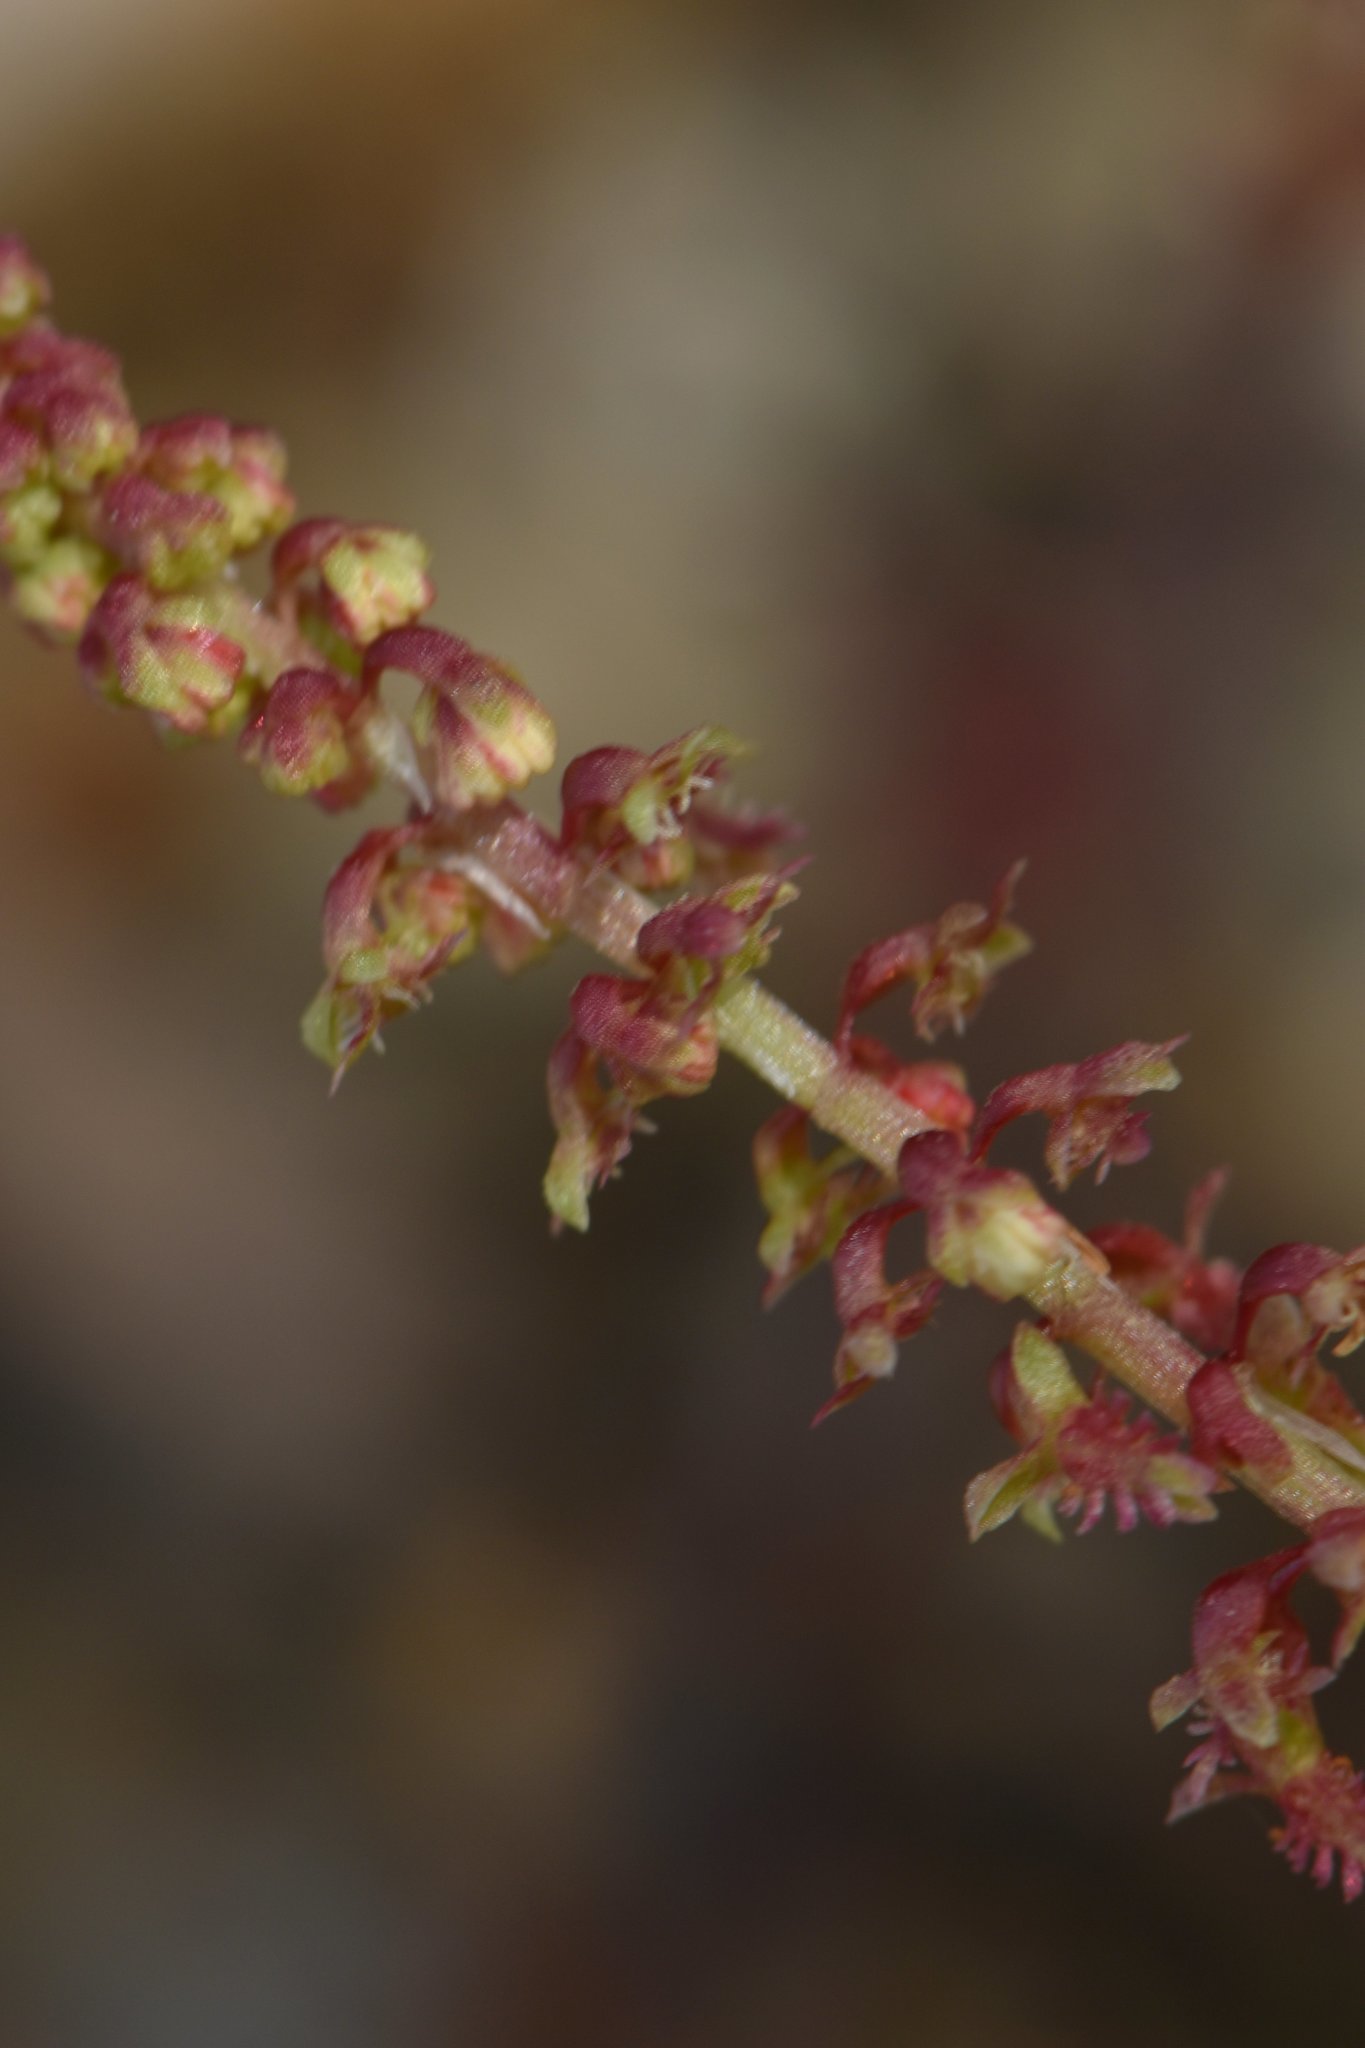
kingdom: Plantae
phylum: Tracheophyta
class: Magnoliopsida
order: Caryophyllales
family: Polygonaceae
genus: Rumex
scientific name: Rumex bucephalophorus
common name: Red dock
